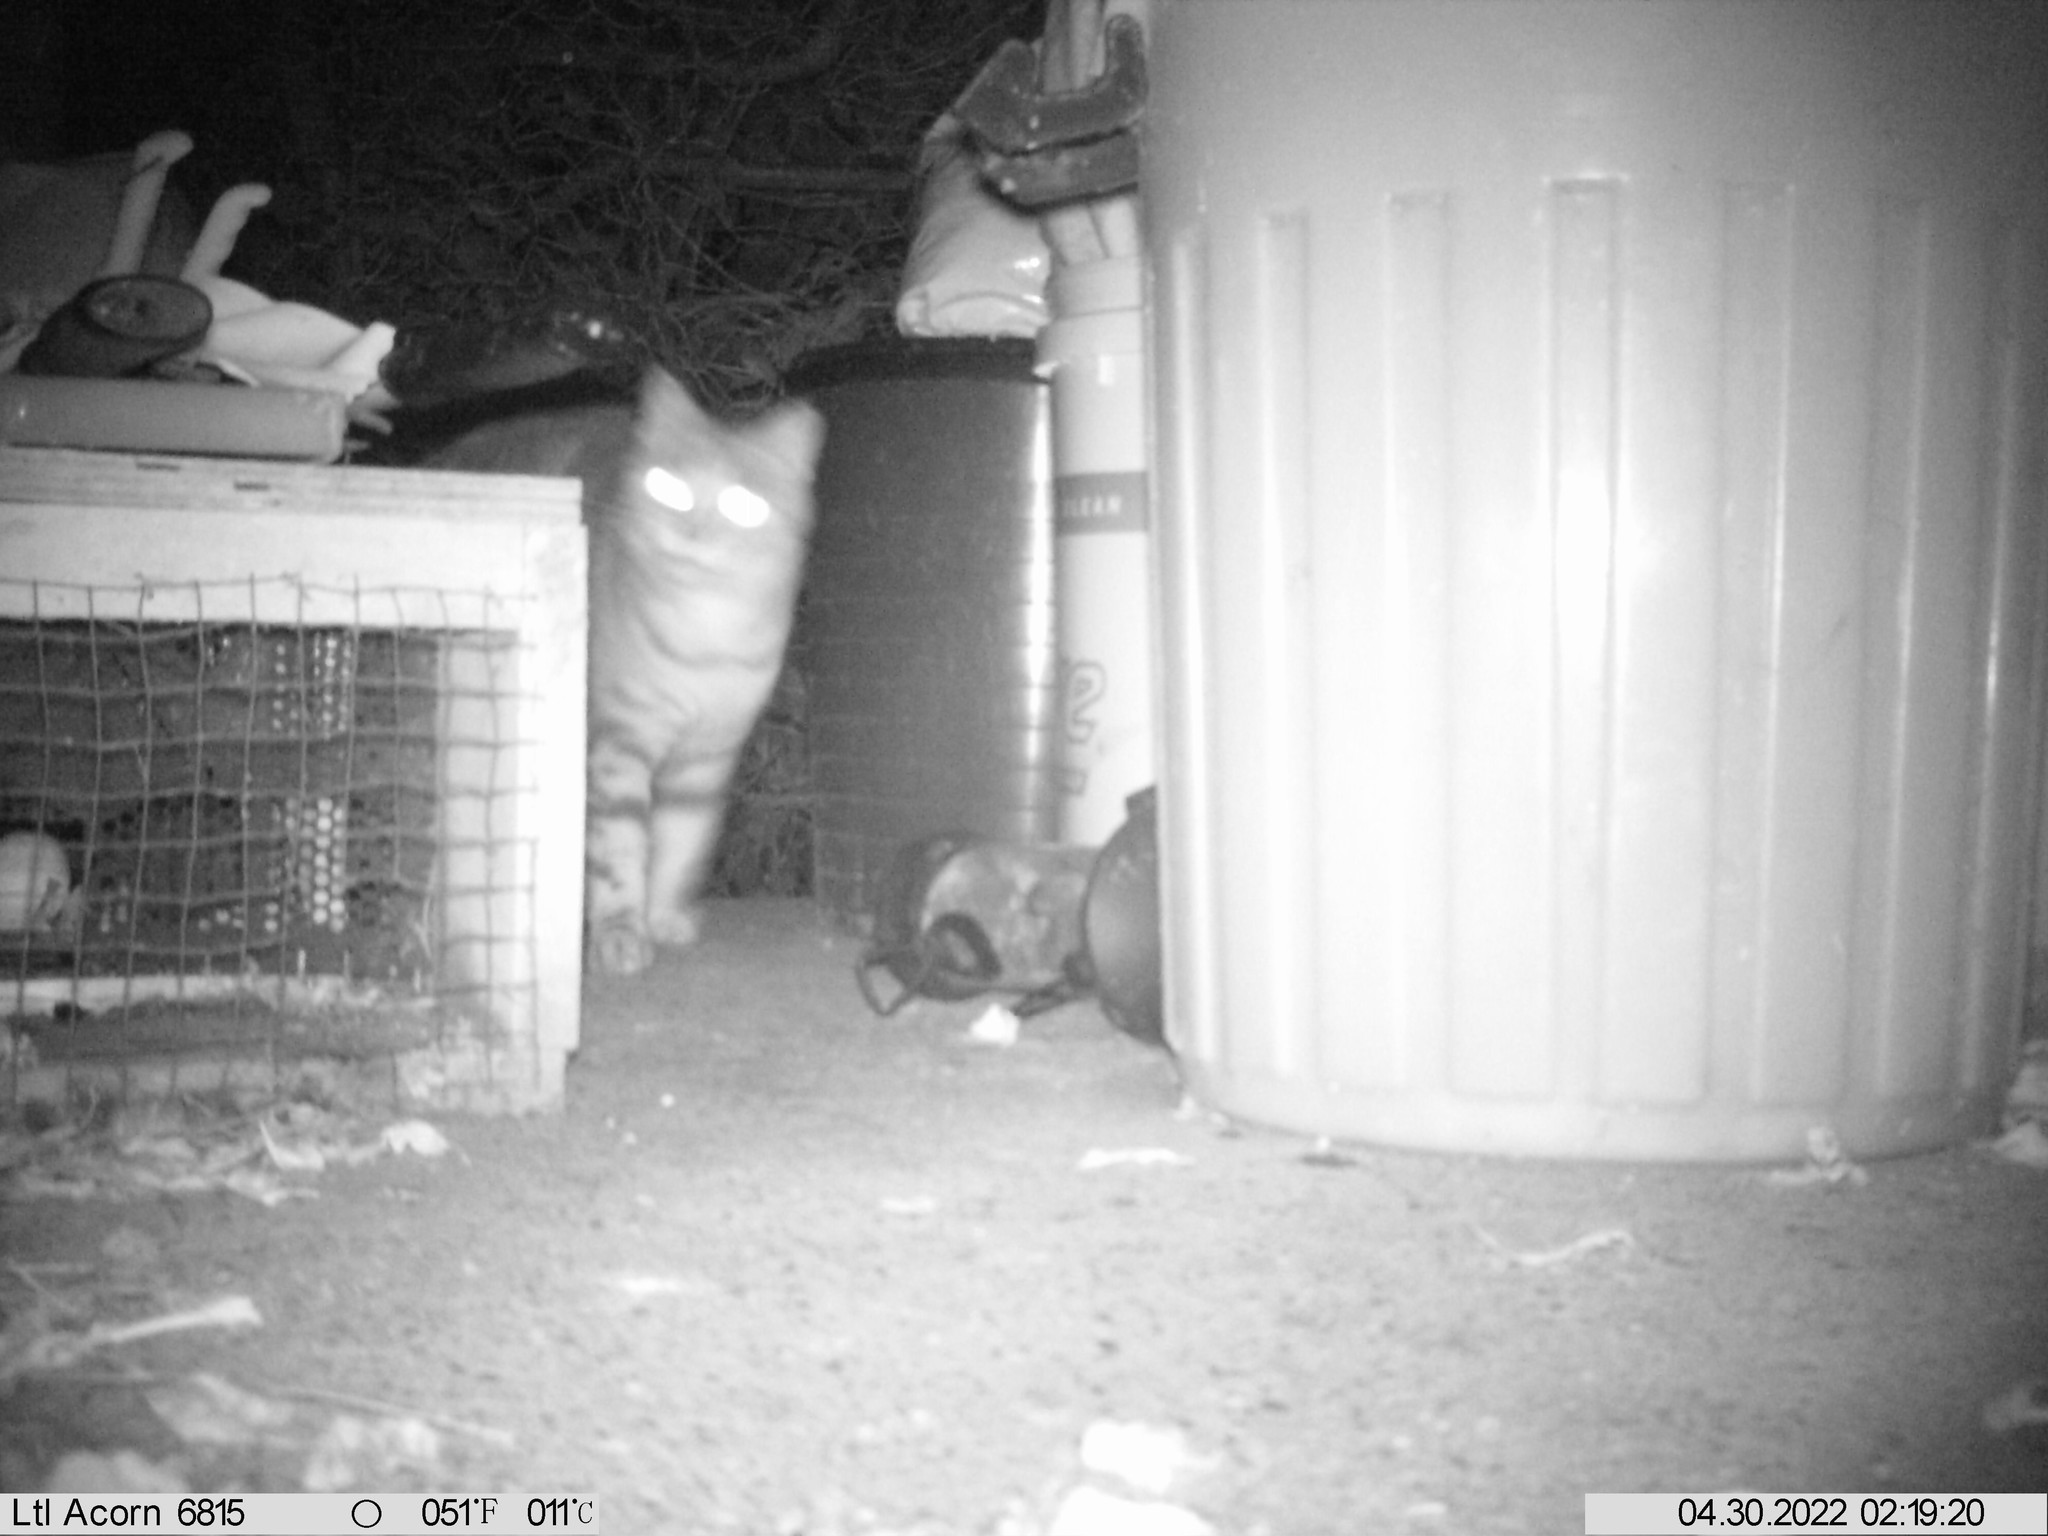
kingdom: Animalia
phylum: Chordata
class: Mammalia
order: Carnivora
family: Felidae
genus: Felis
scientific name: Felis catus
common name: Domestic cat
